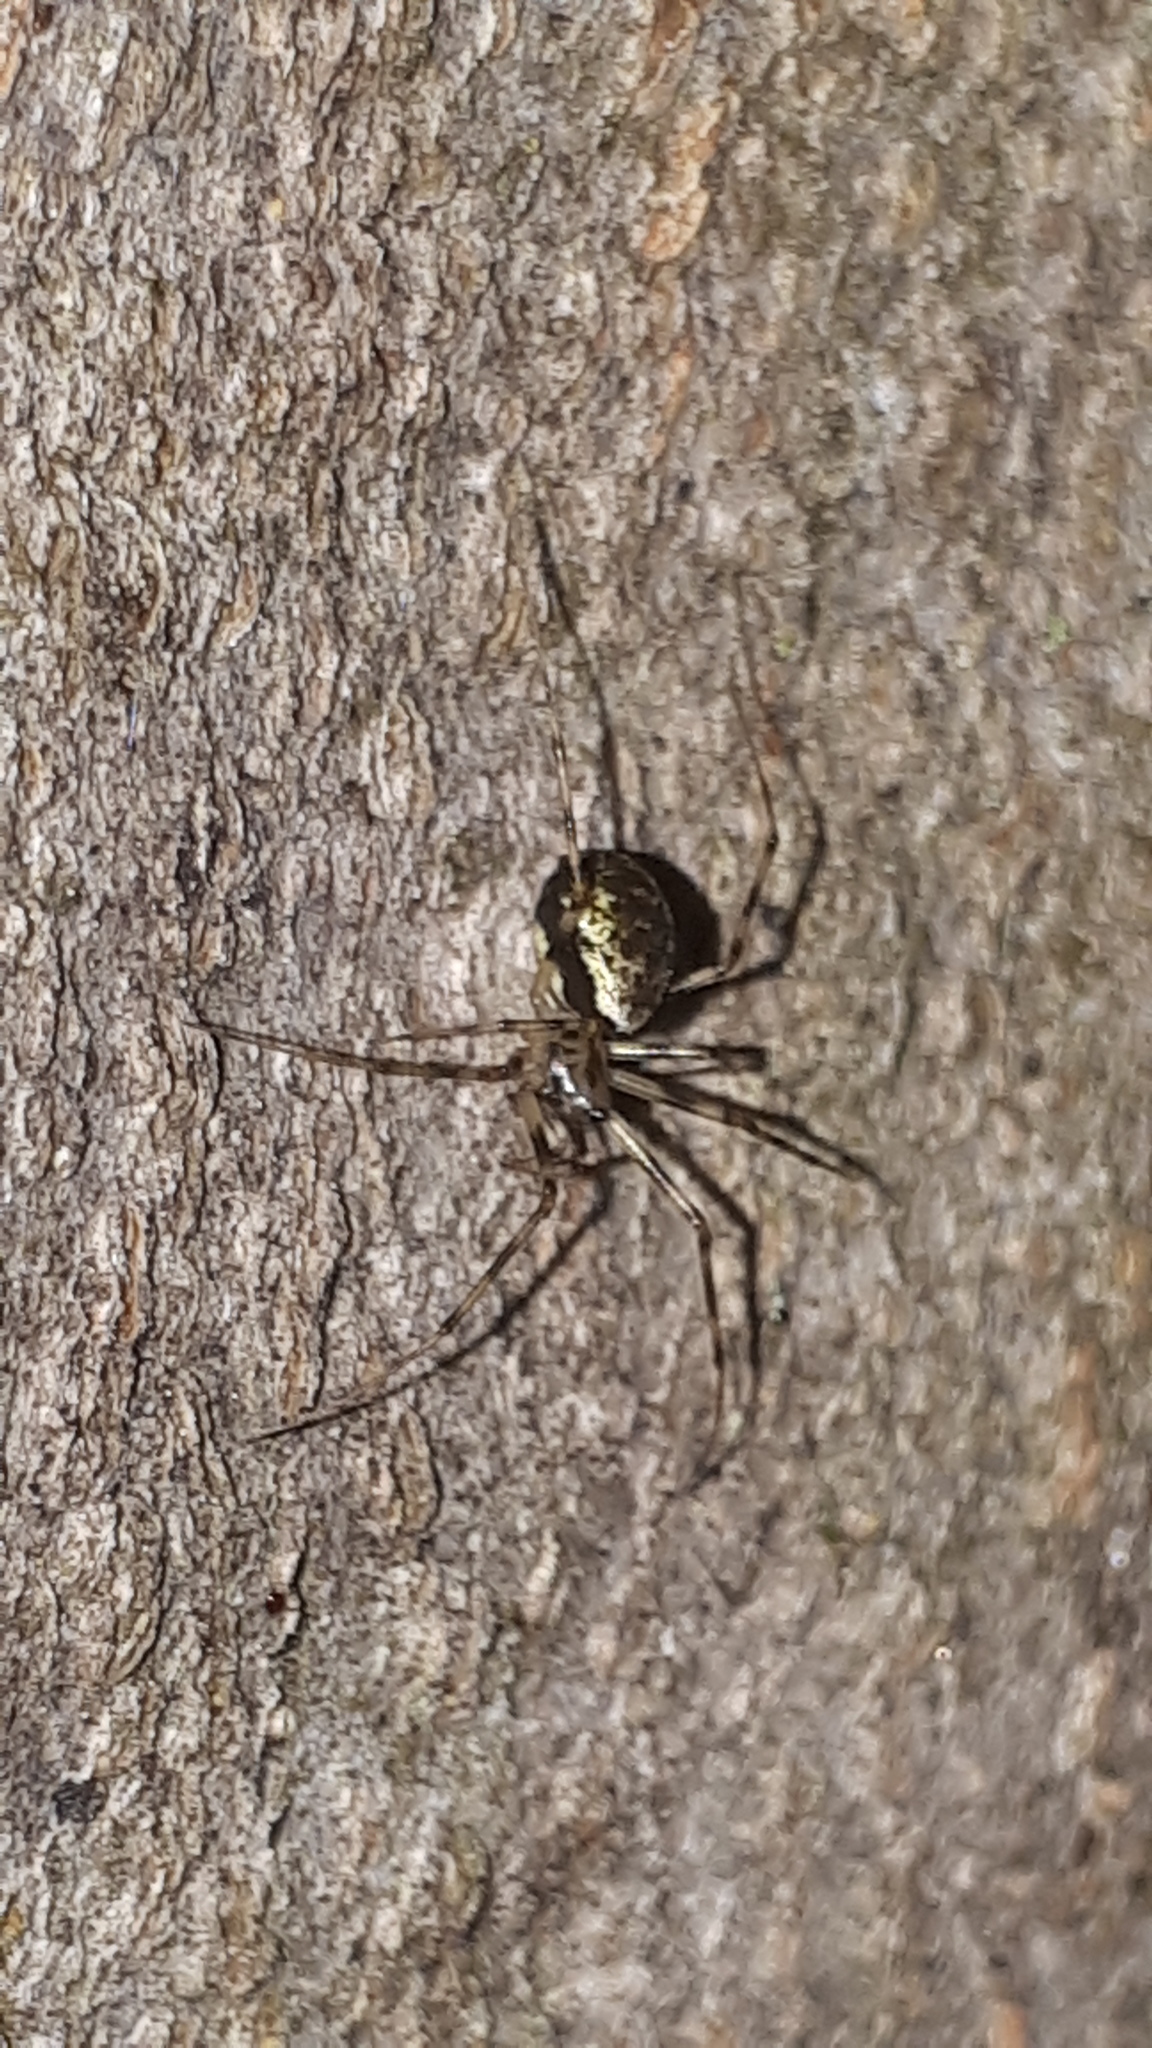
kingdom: Animalia
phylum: Arthropoda
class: Arachnida
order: Araneae
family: Linyphiidae
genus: Drapetisca
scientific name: Drapetisca socialis
